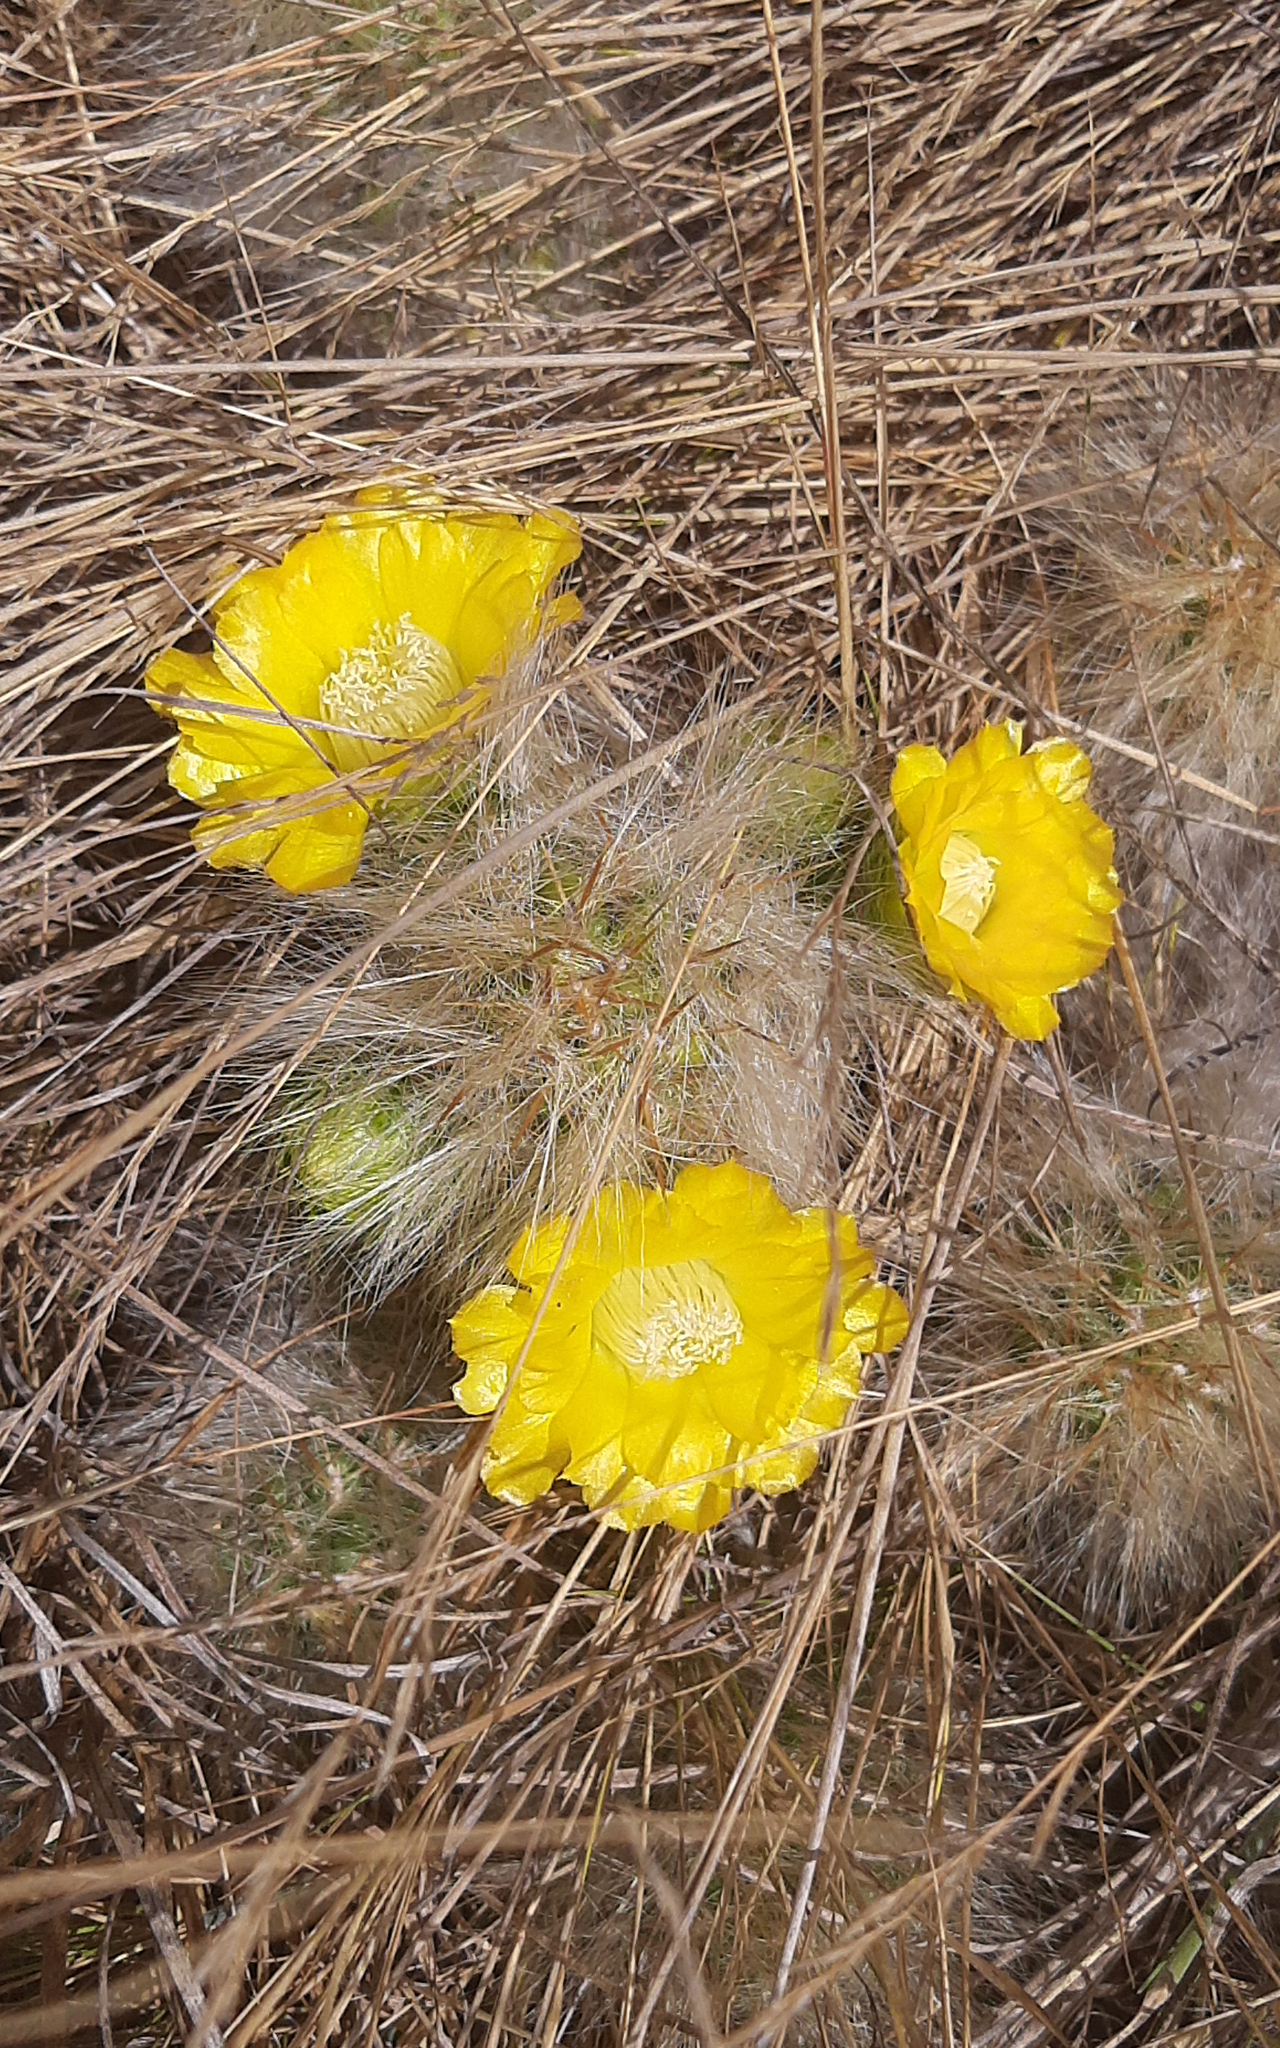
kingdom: Plantae
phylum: Tracheophyta
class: Magnoliopsida
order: Caryophyllales
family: Cactaceae
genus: Austrocylindropuntia
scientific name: Austrocylindropuntia floccosa
